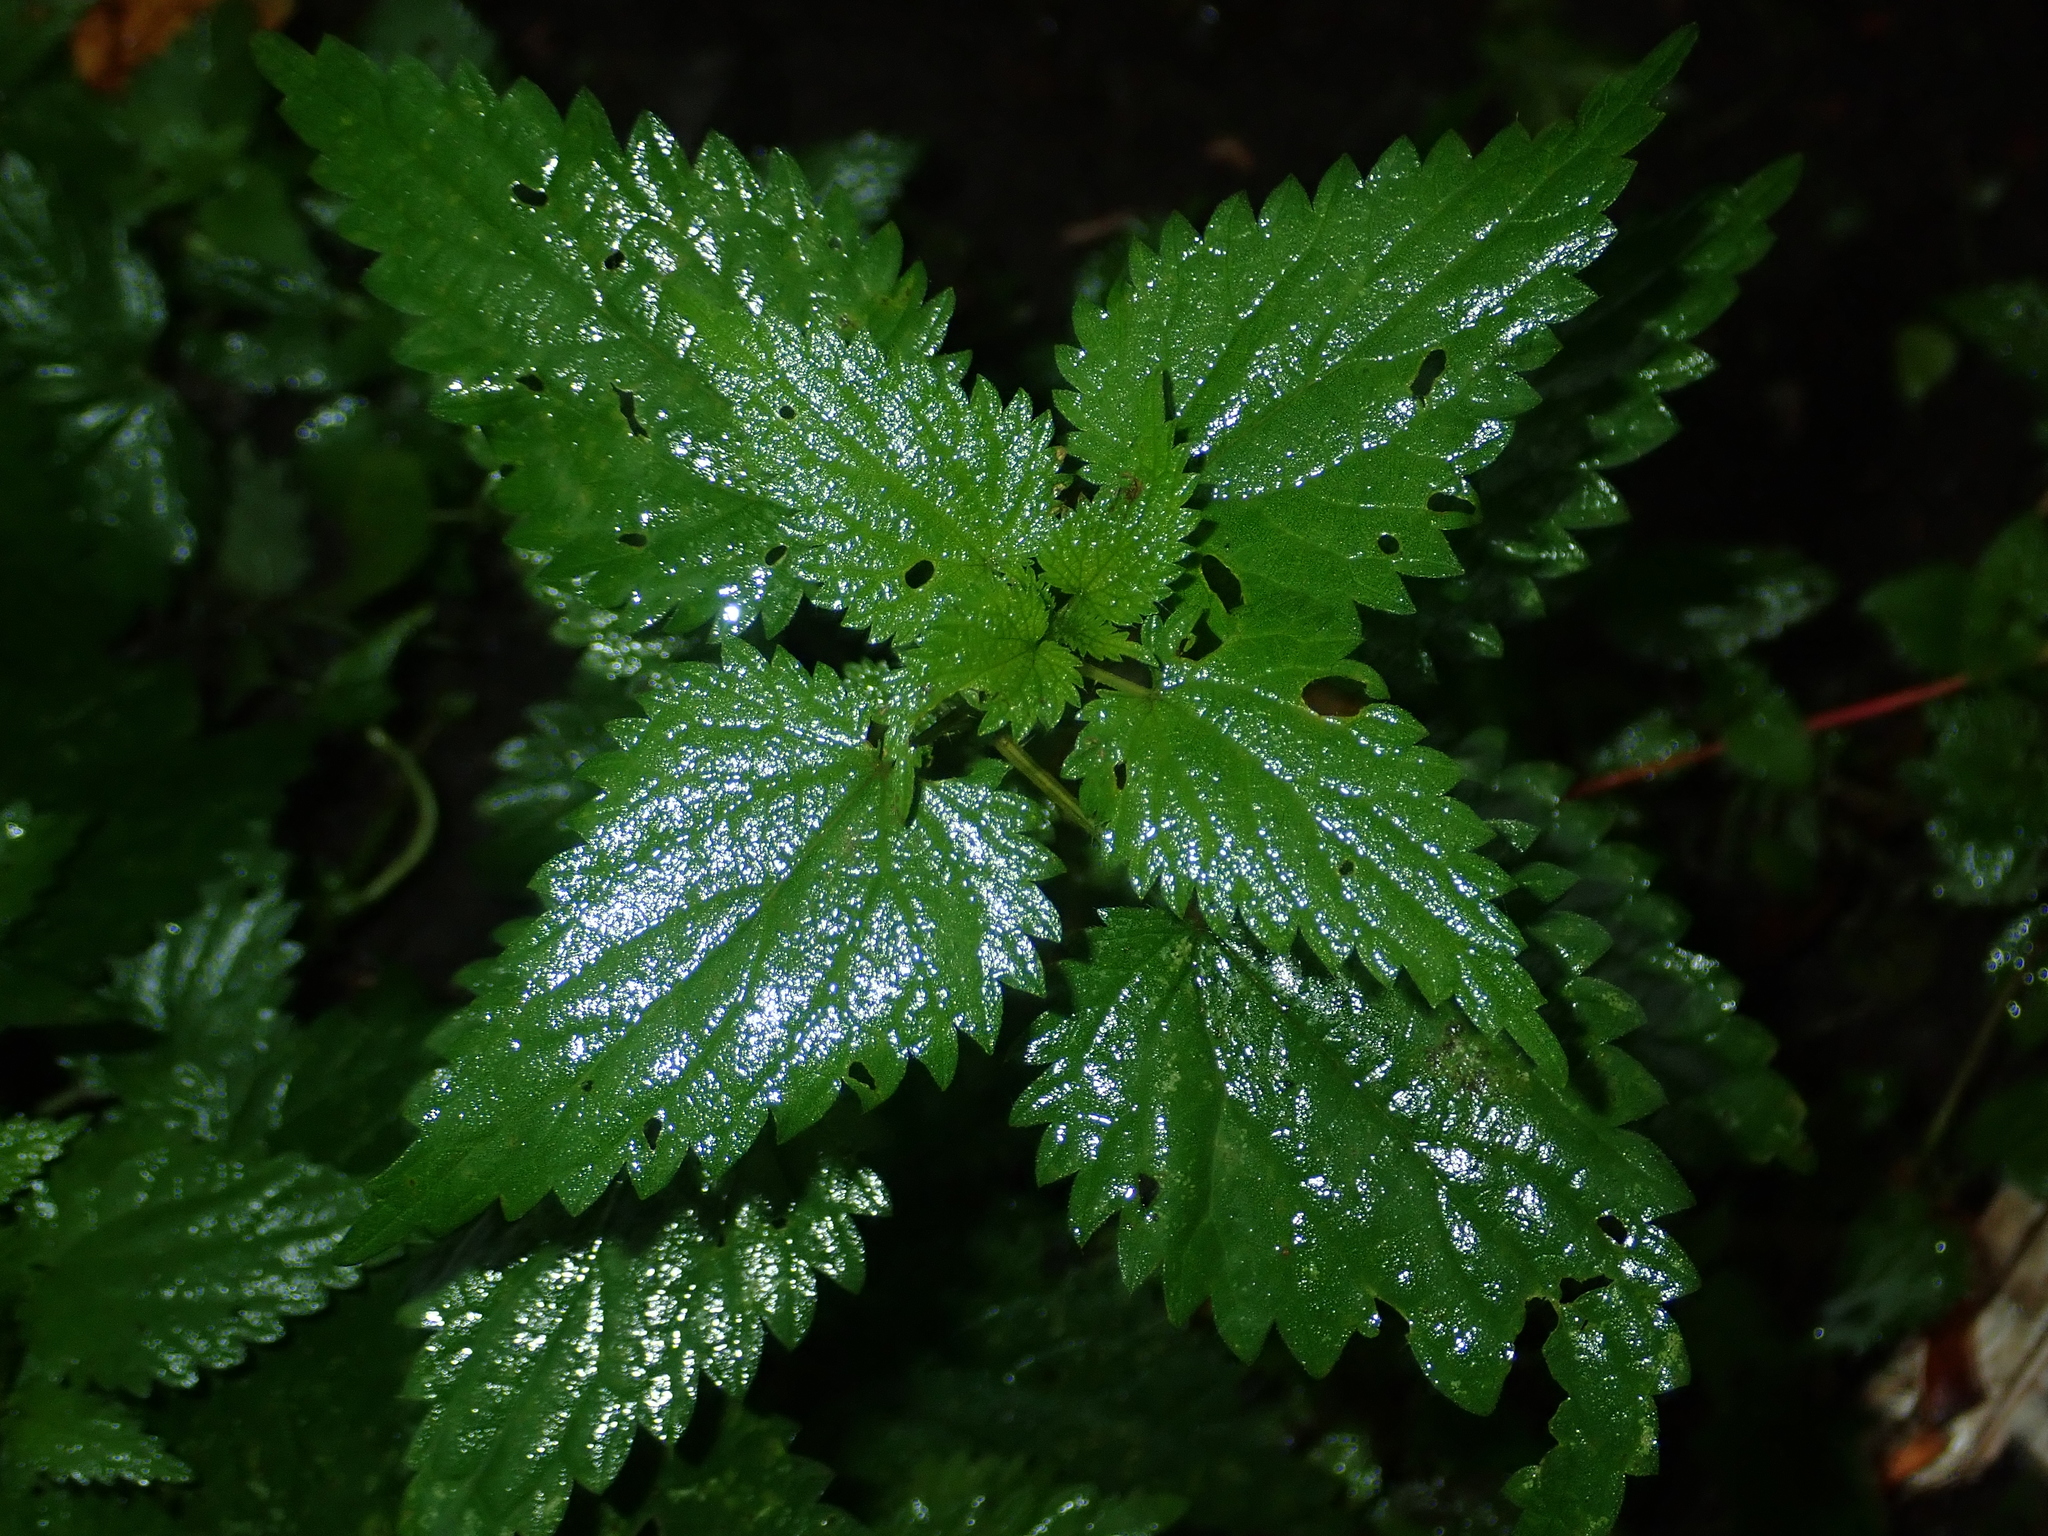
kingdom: Plantae
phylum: Tracheophyta
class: Magnoliopsida
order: Rosales
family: Urticaceae
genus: Urtica
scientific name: Urtica dioica
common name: Common nettle
